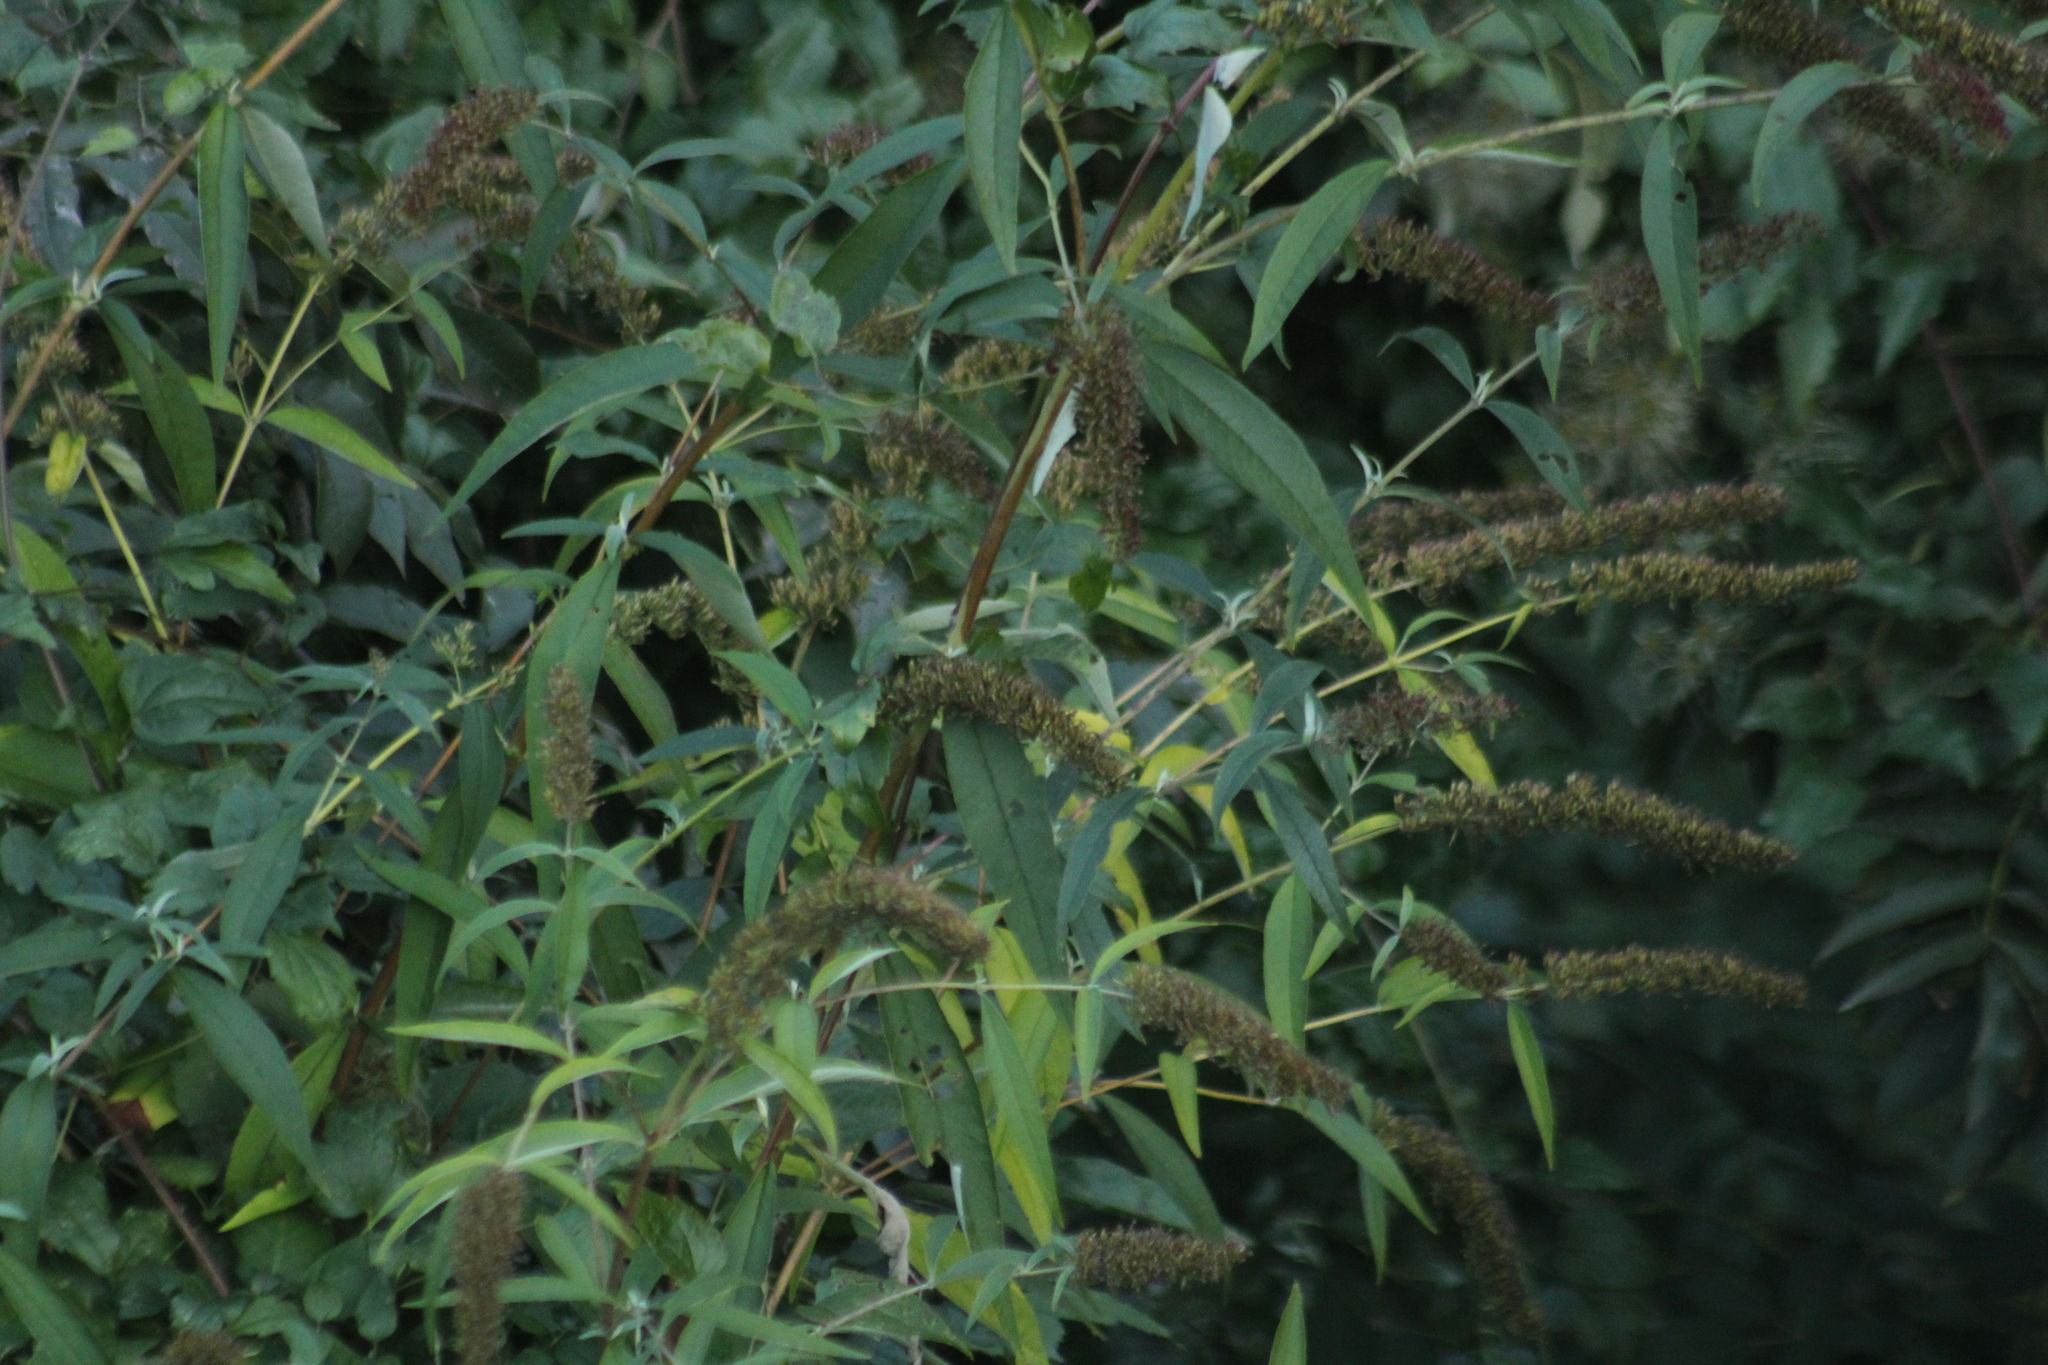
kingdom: Plantae
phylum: Tracheophyta
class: Magnoliopsida
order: Lamiales
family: Scrophulariaceae
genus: Buddleja
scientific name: Buddleja davidii
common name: Butterfly-bush
